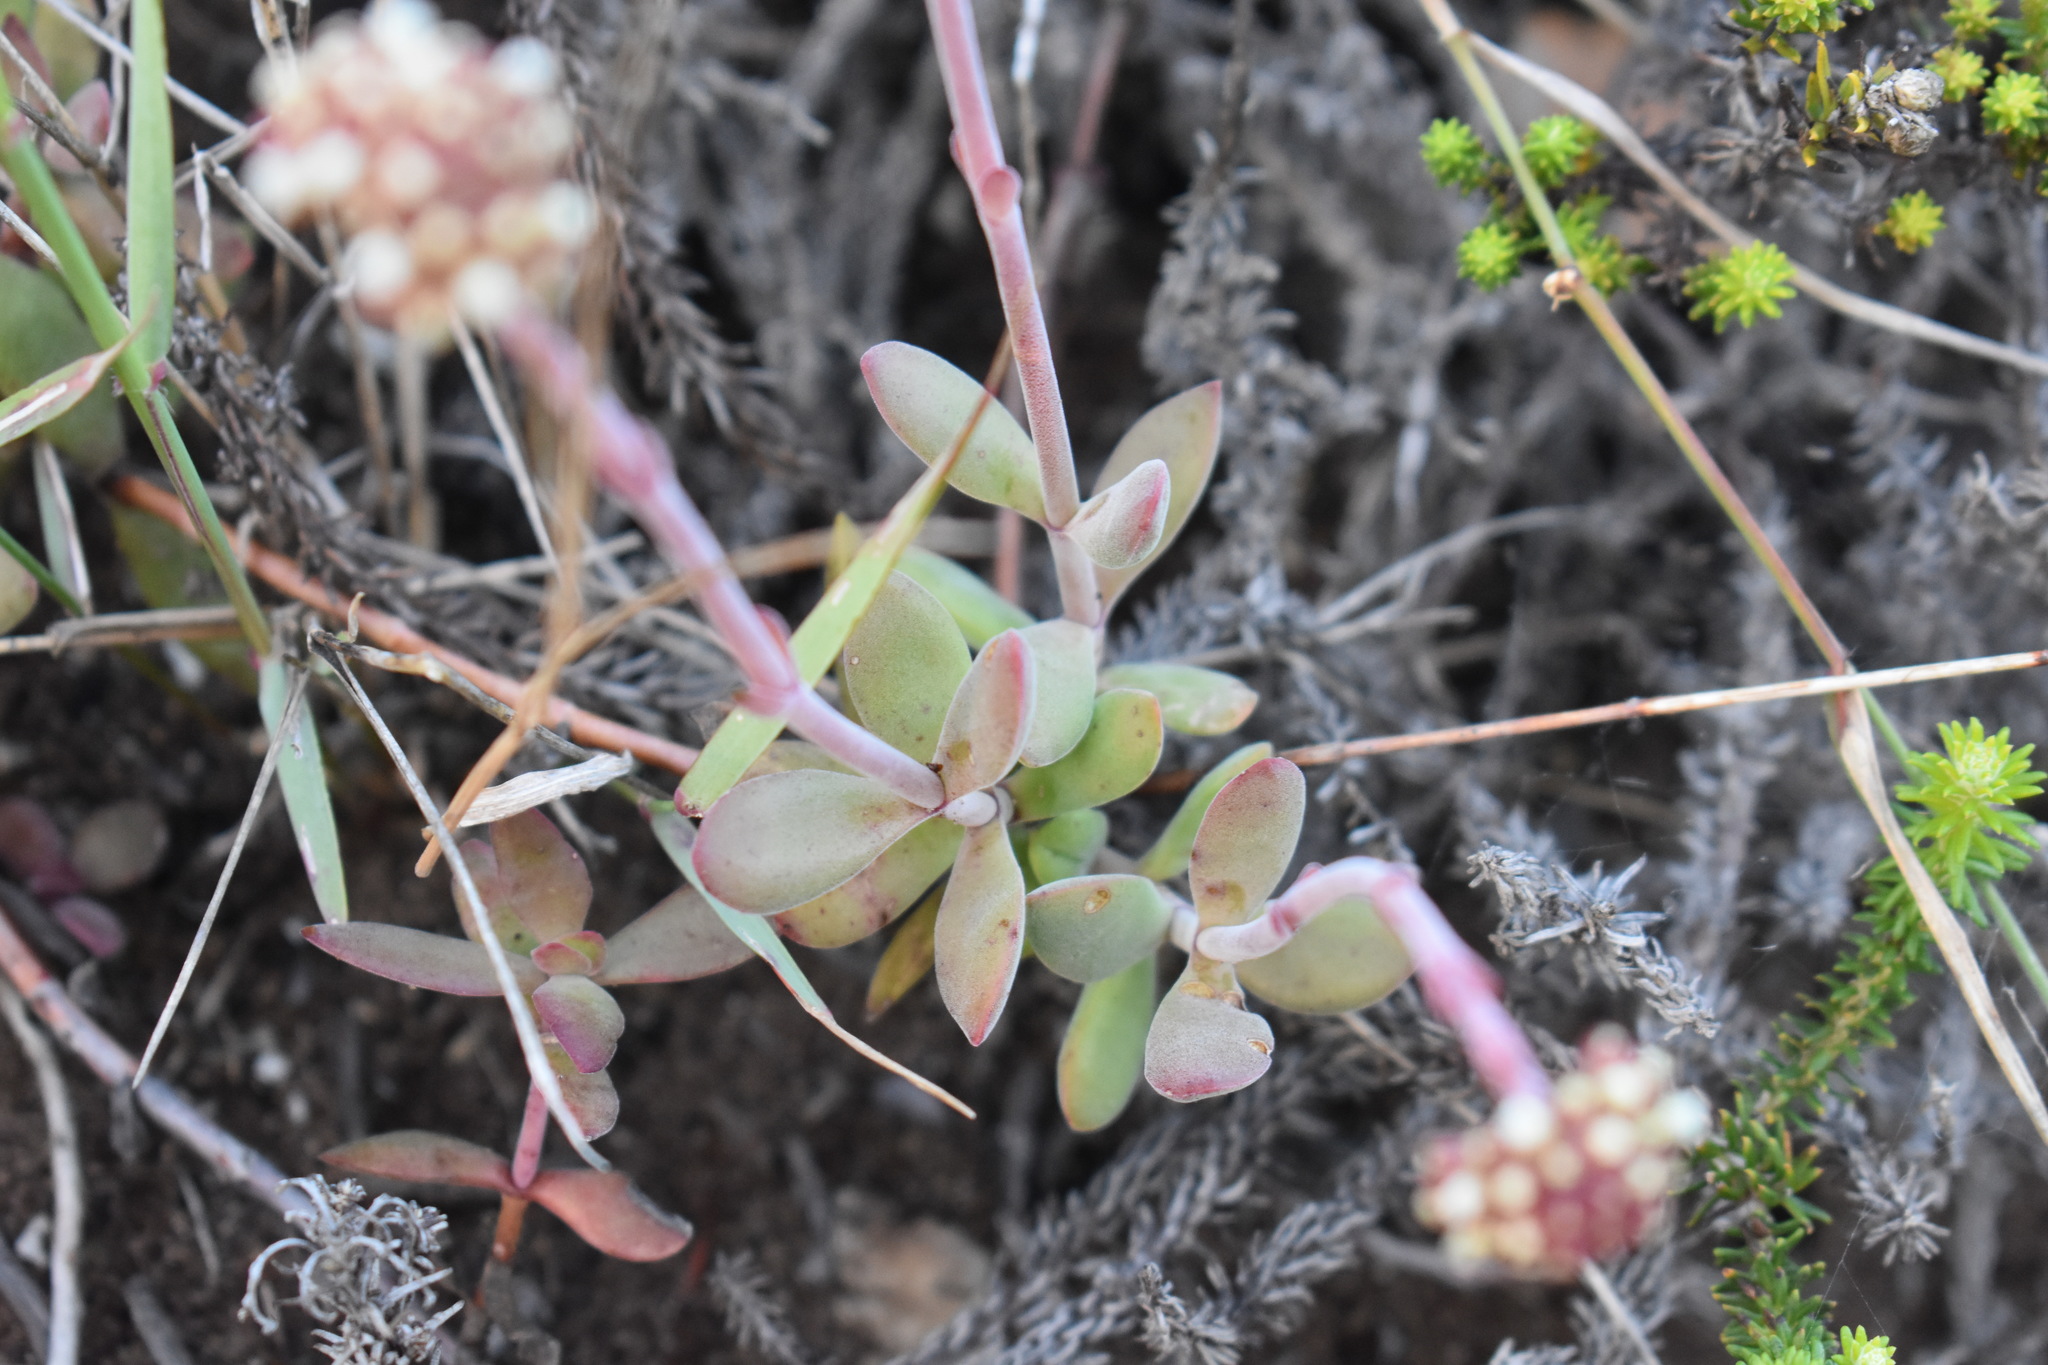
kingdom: Plantae
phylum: Tracheophyta
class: Magnoliopsida
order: Saxifragales
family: Crassulaceae
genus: Crassula
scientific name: Crassula pubescens
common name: Jersey pigmyweed
